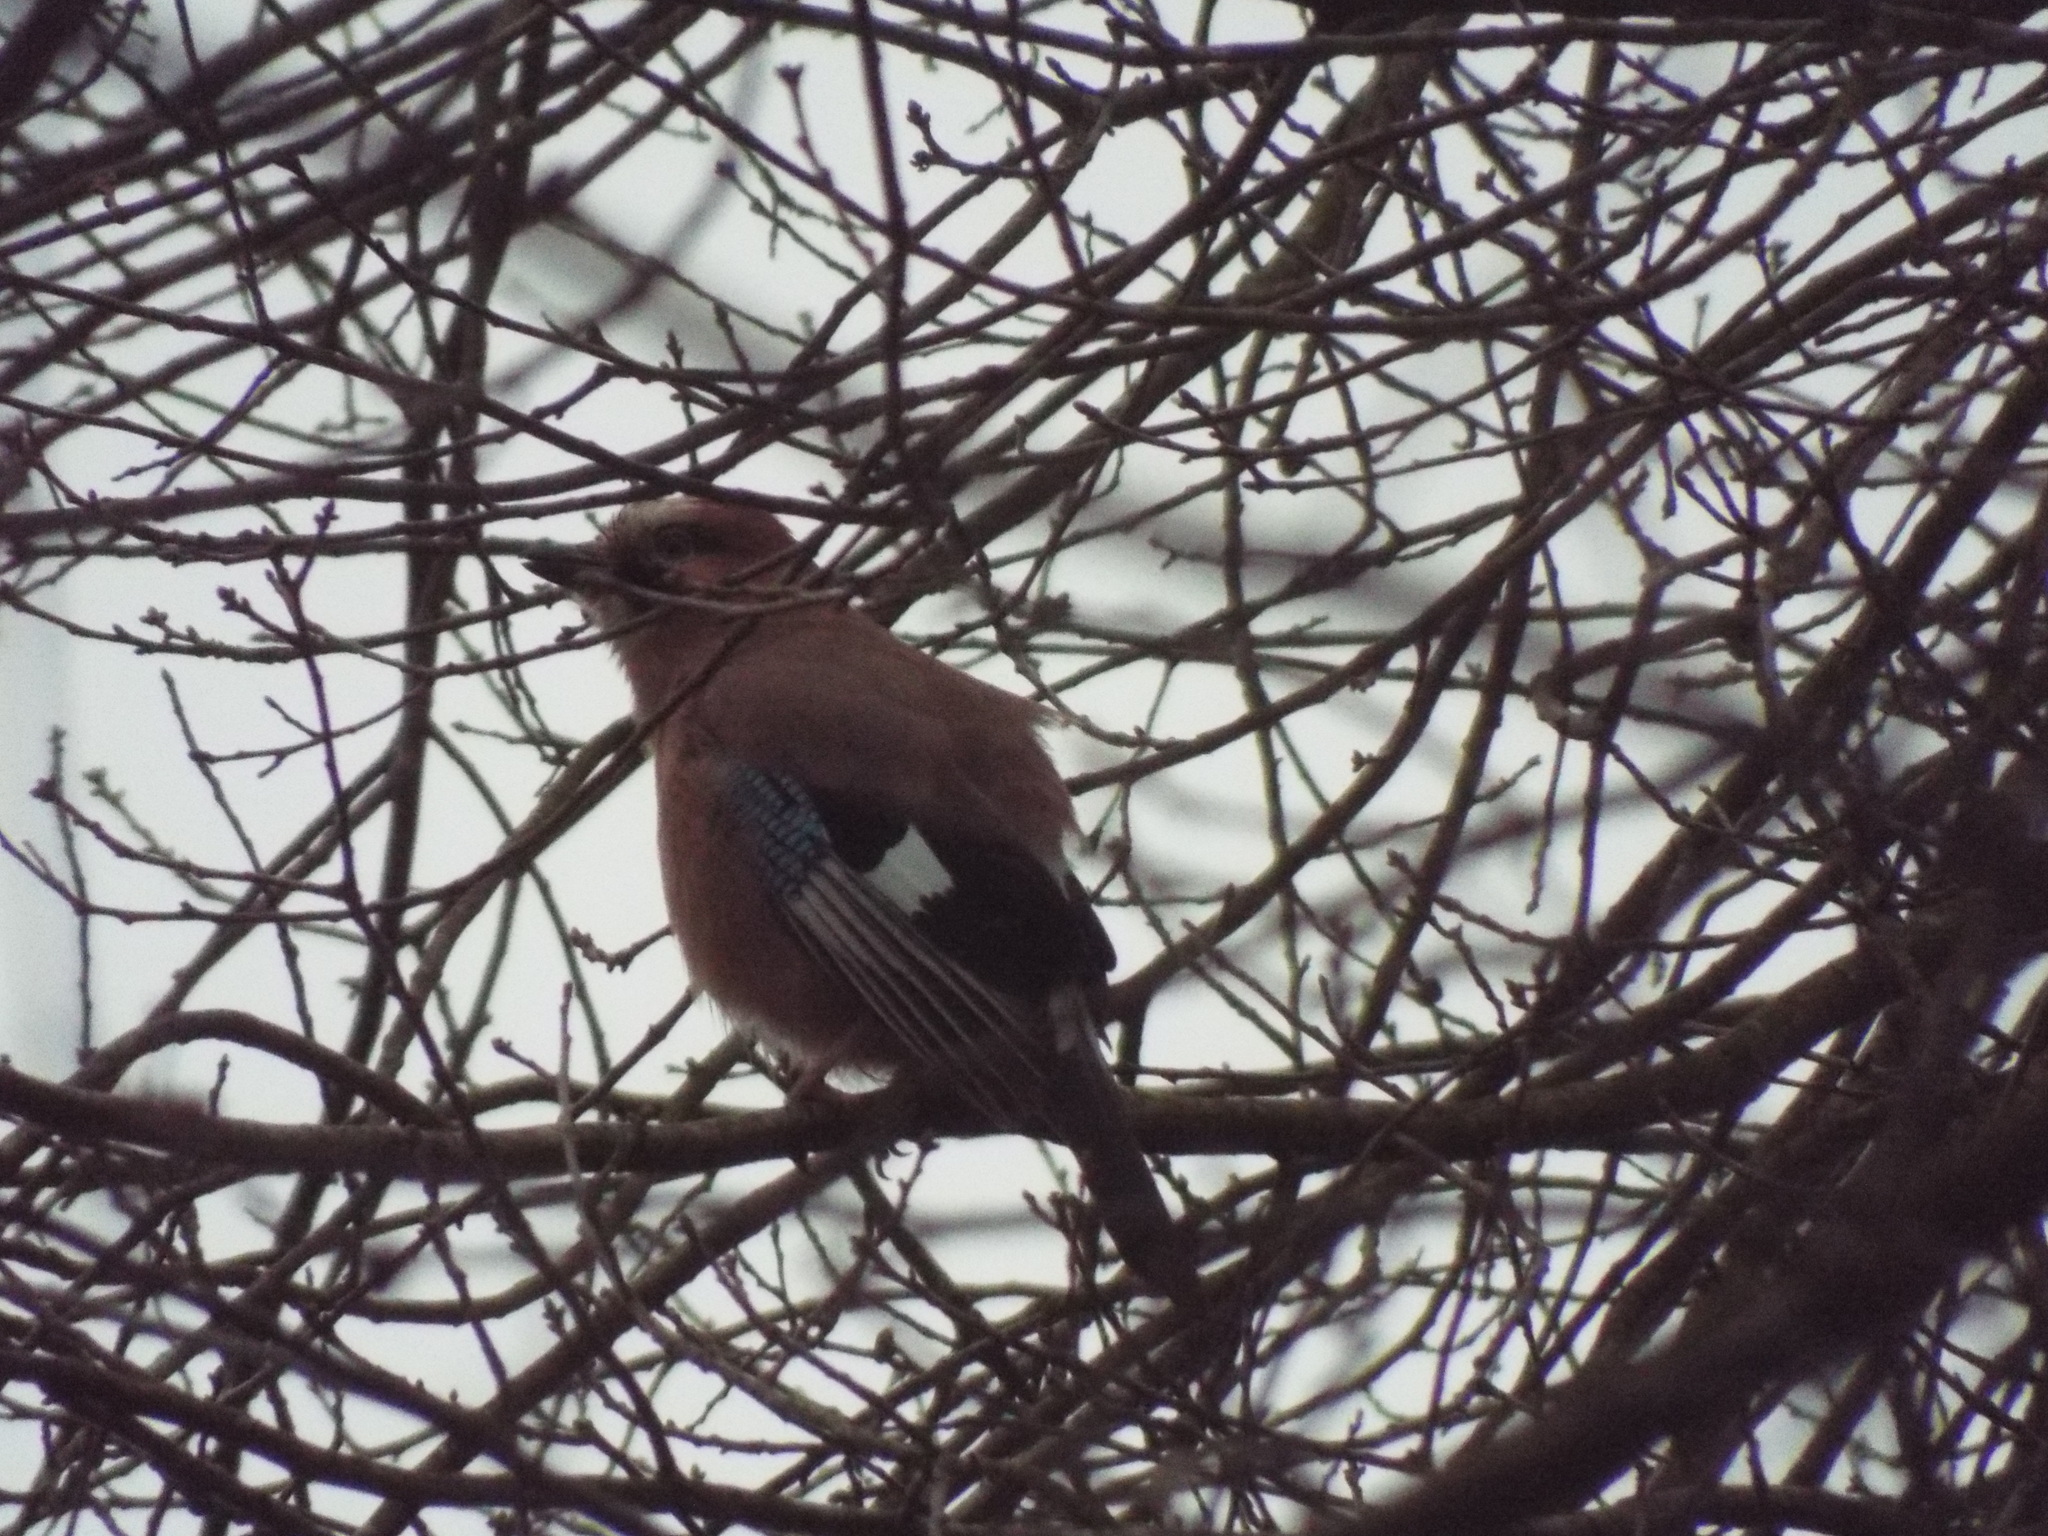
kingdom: Animalia
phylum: Chordata
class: Aves
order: Passeriformes
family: Corvidae
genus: Garrulus
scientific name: Garrulus glandarius
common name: Eurasian jay
